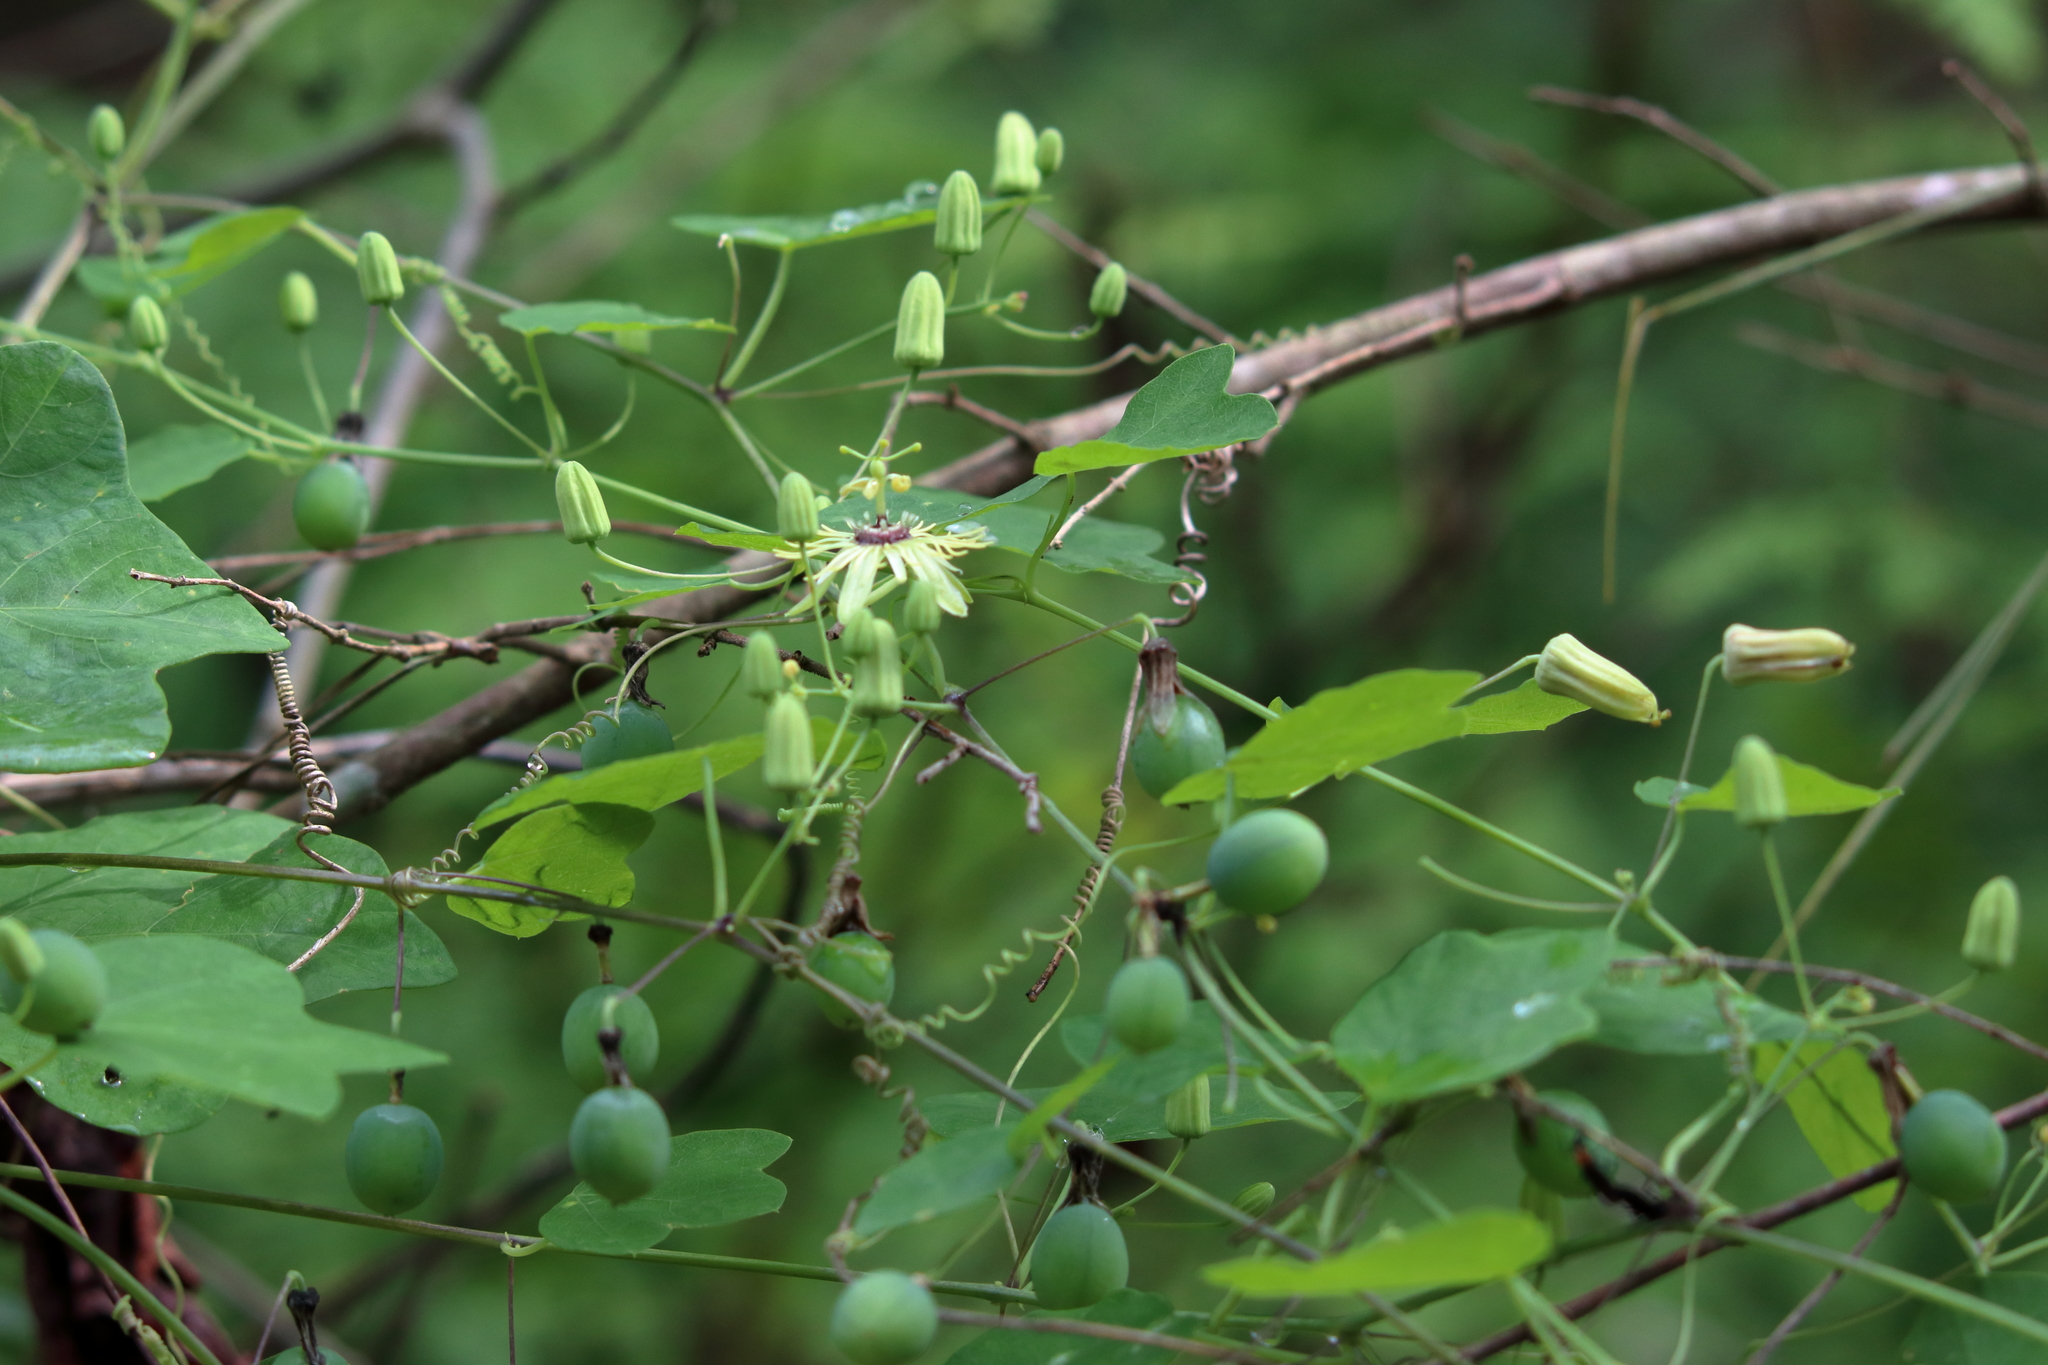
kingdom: Plantae
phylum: Tracheophyta
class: Magnoliopsida
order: Malpighiales
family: Passifloraceae
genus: Passiflora
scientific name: Passiflora lutea
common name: Yellow passionflower
